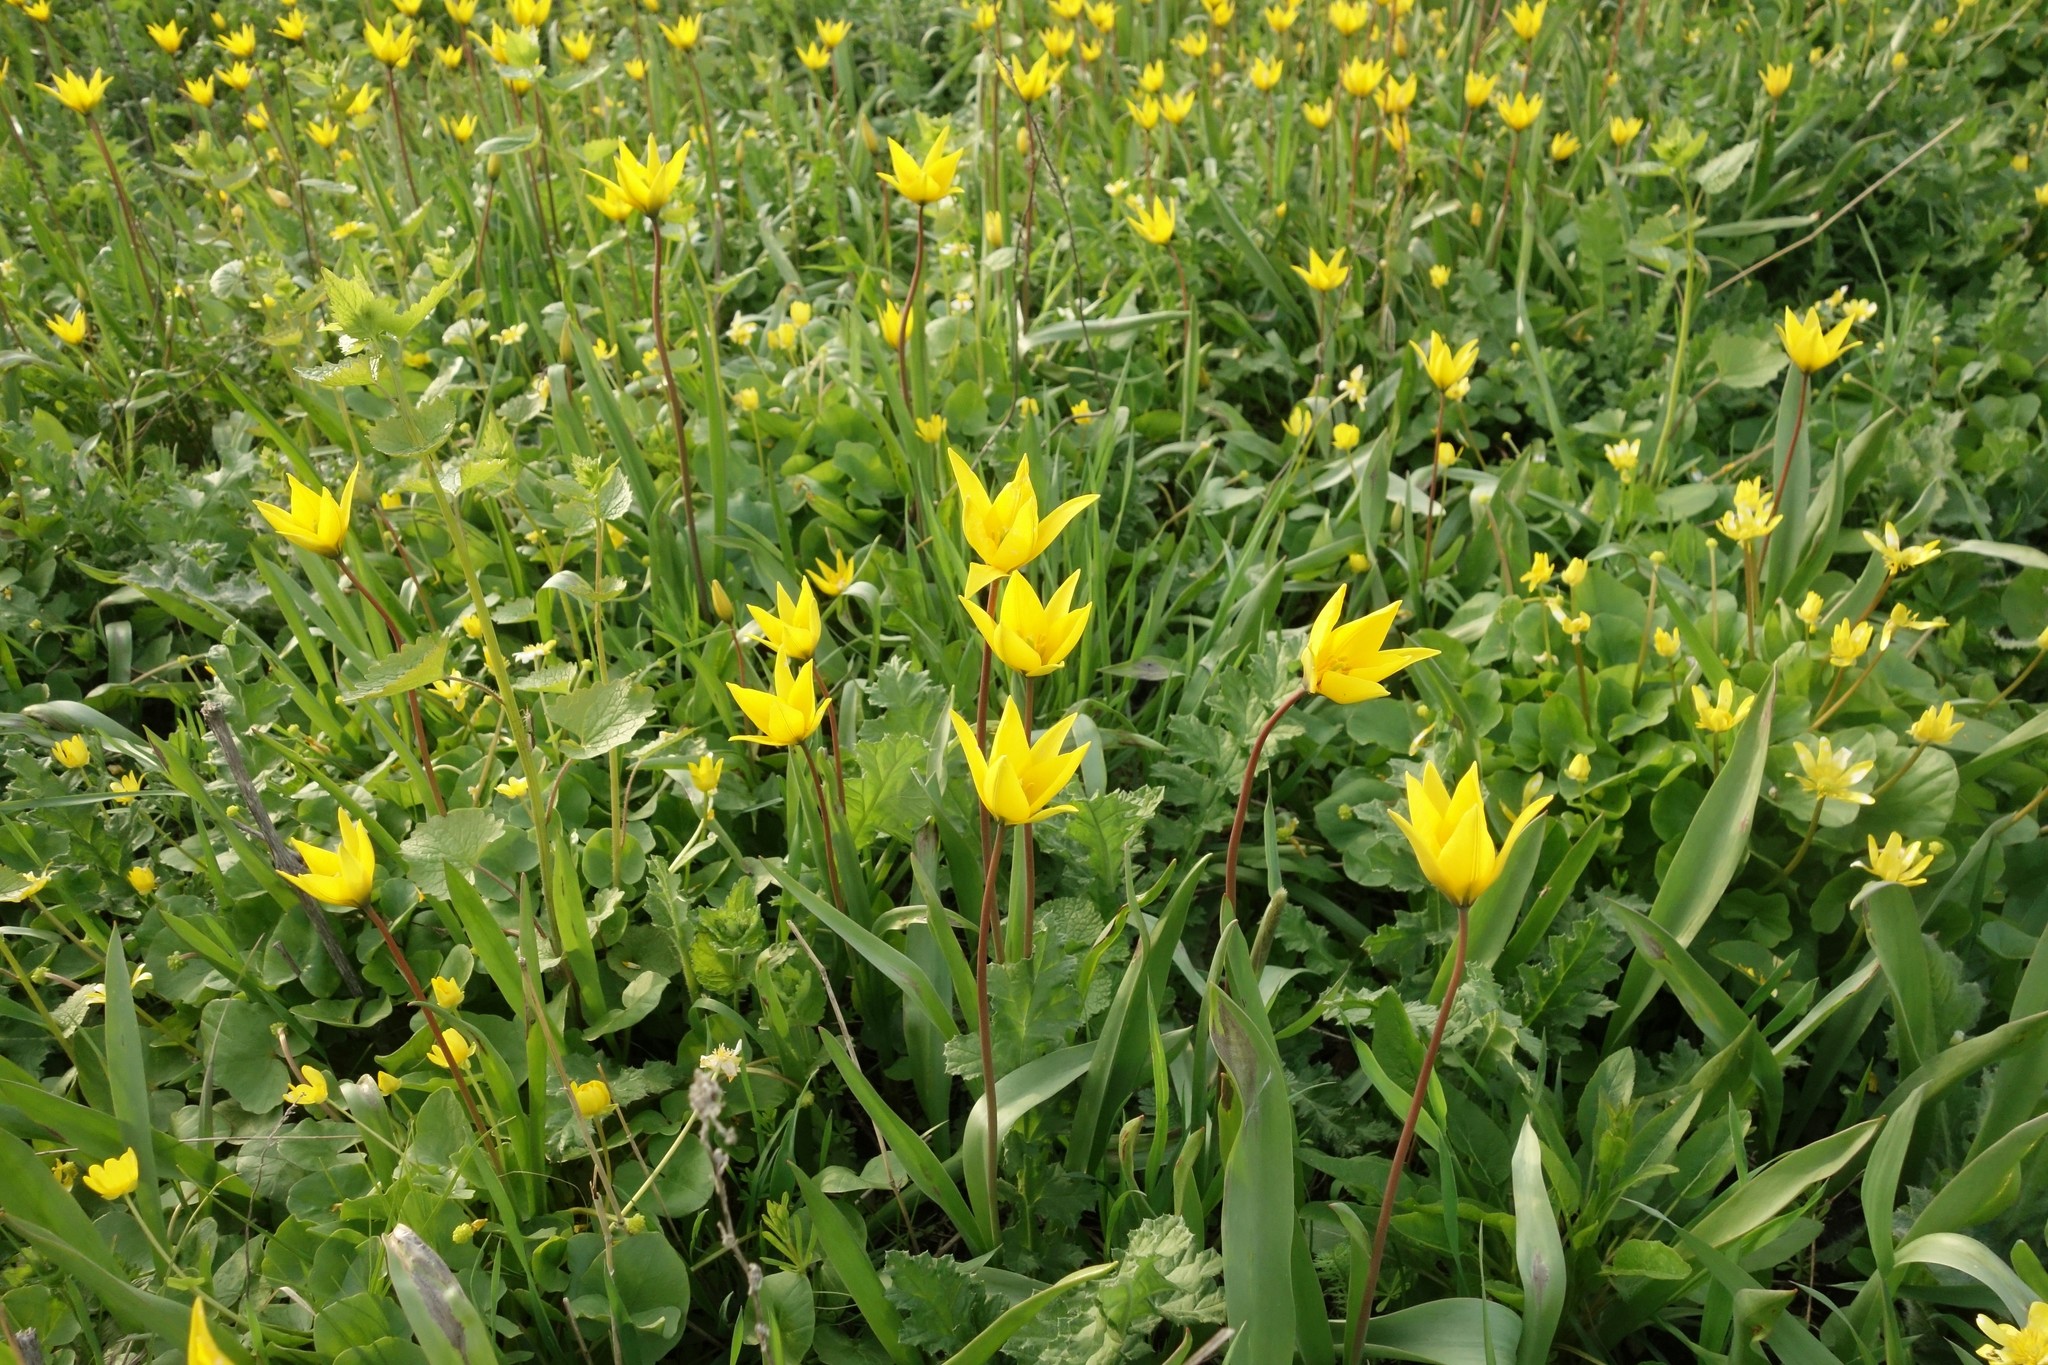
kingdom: Plantae
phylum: Tracheophyta
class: Liliopsida
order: Liliales
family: Liliaceae
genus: Tulipa
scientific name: Tulipa sylvestris
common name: Wild tulip
